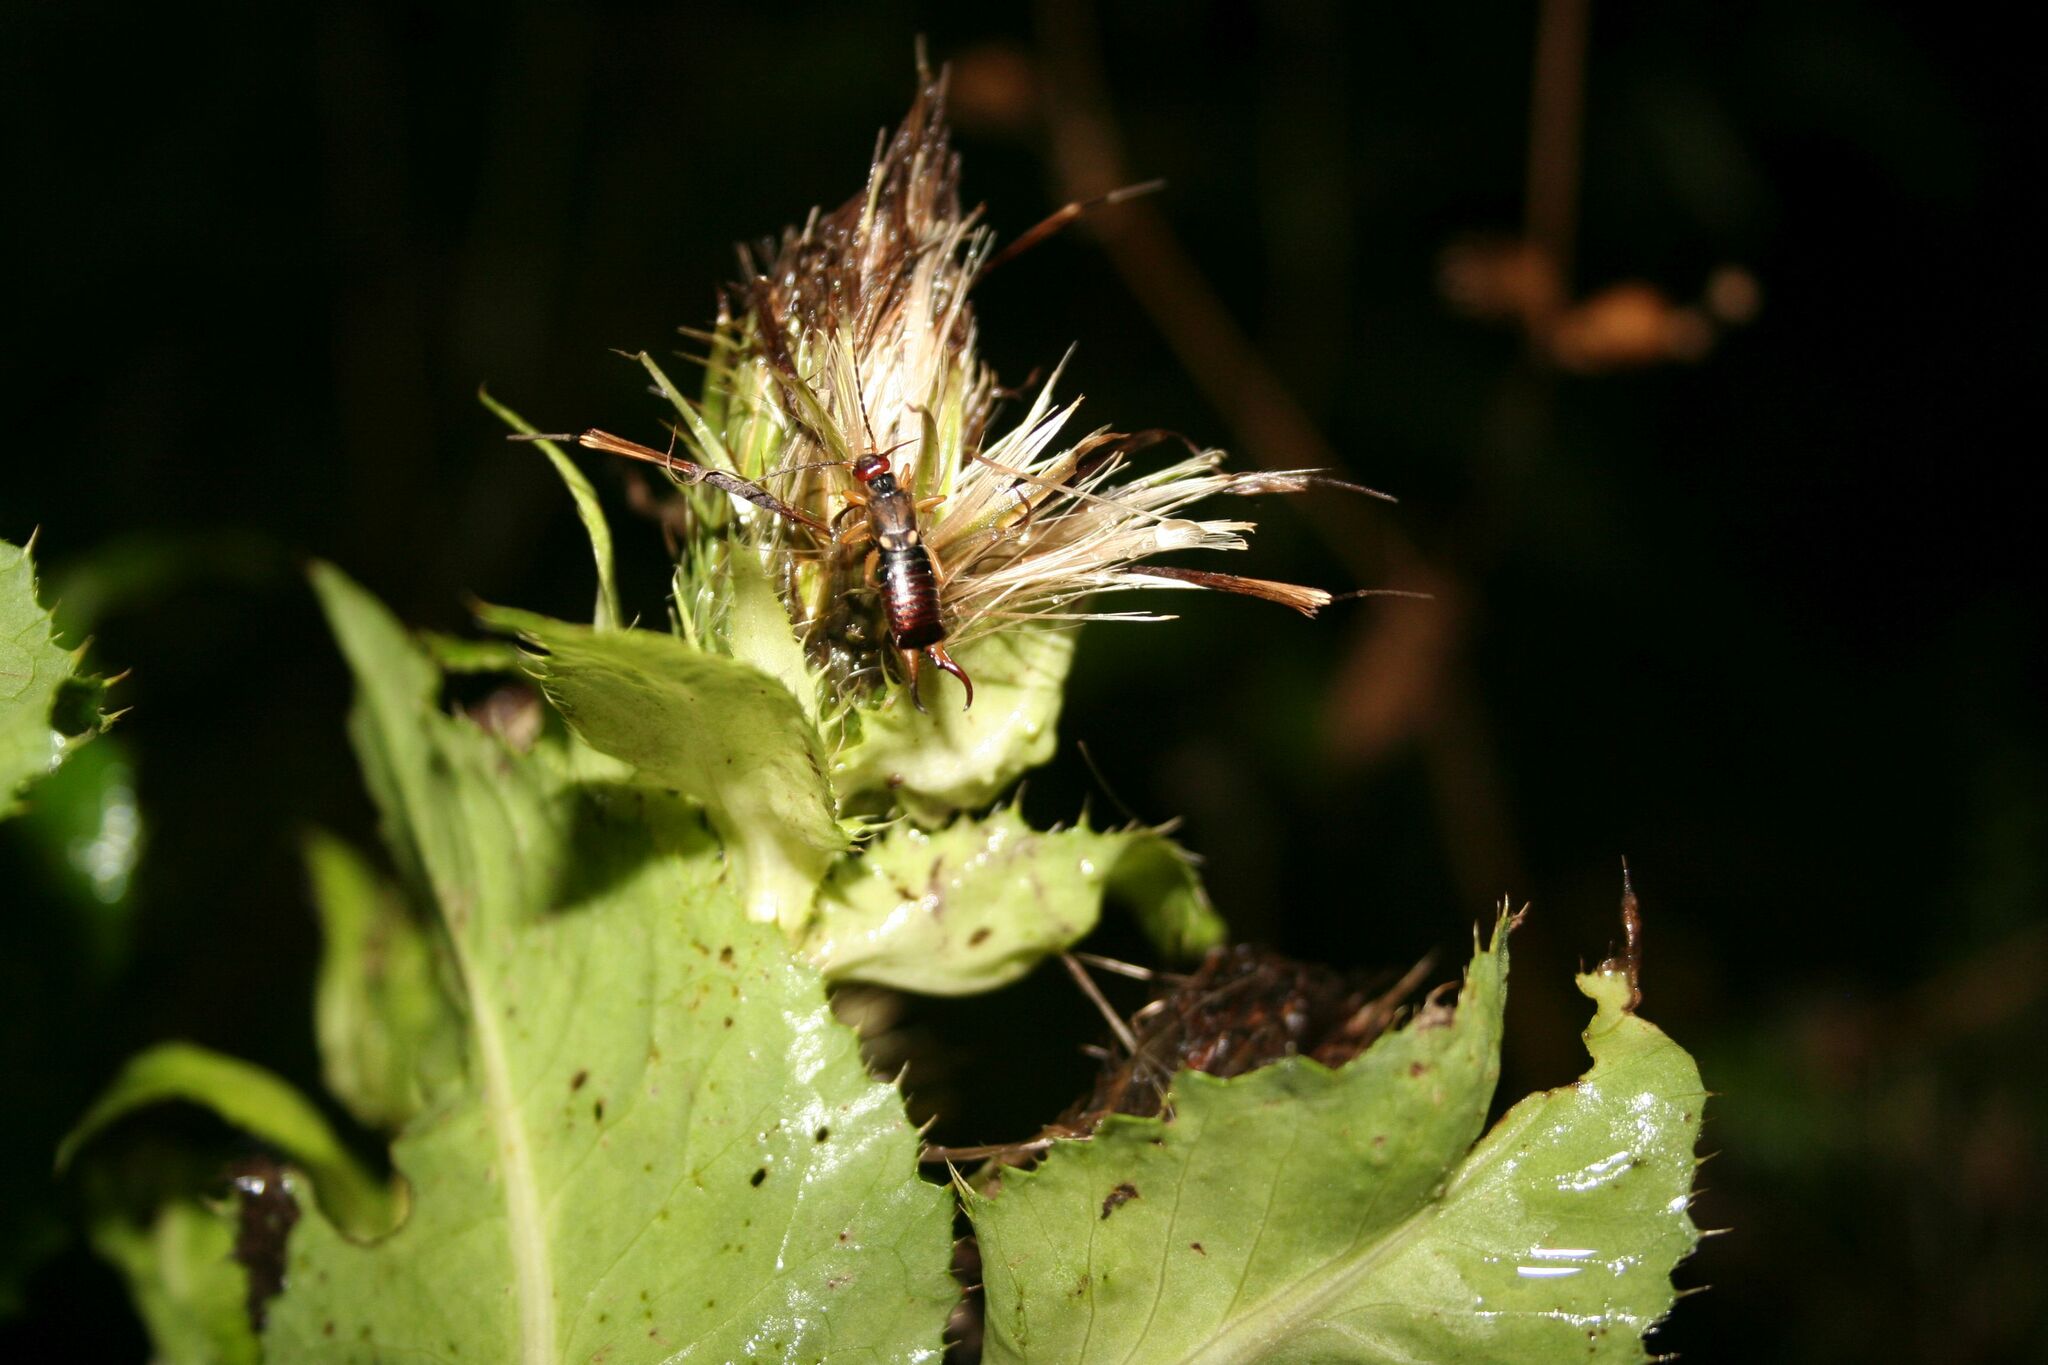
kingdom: Animalia
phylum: Arthropoda
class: Insecta
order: Dermaptera
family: Forficulidae
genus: Forficula
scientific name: Forficula
